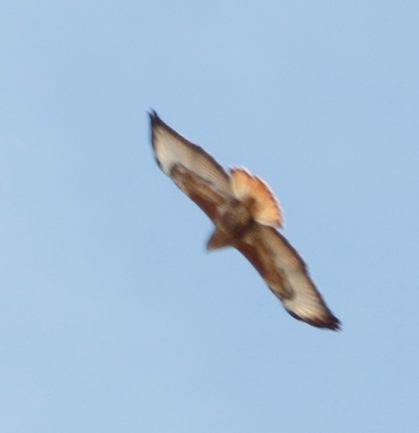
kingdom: Animalia
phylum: Chordata
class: Aves
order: Accipitriformes
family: Accipitridae
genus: Buteo
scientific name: Buteo rufofuscus
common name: Jackal buzzard
